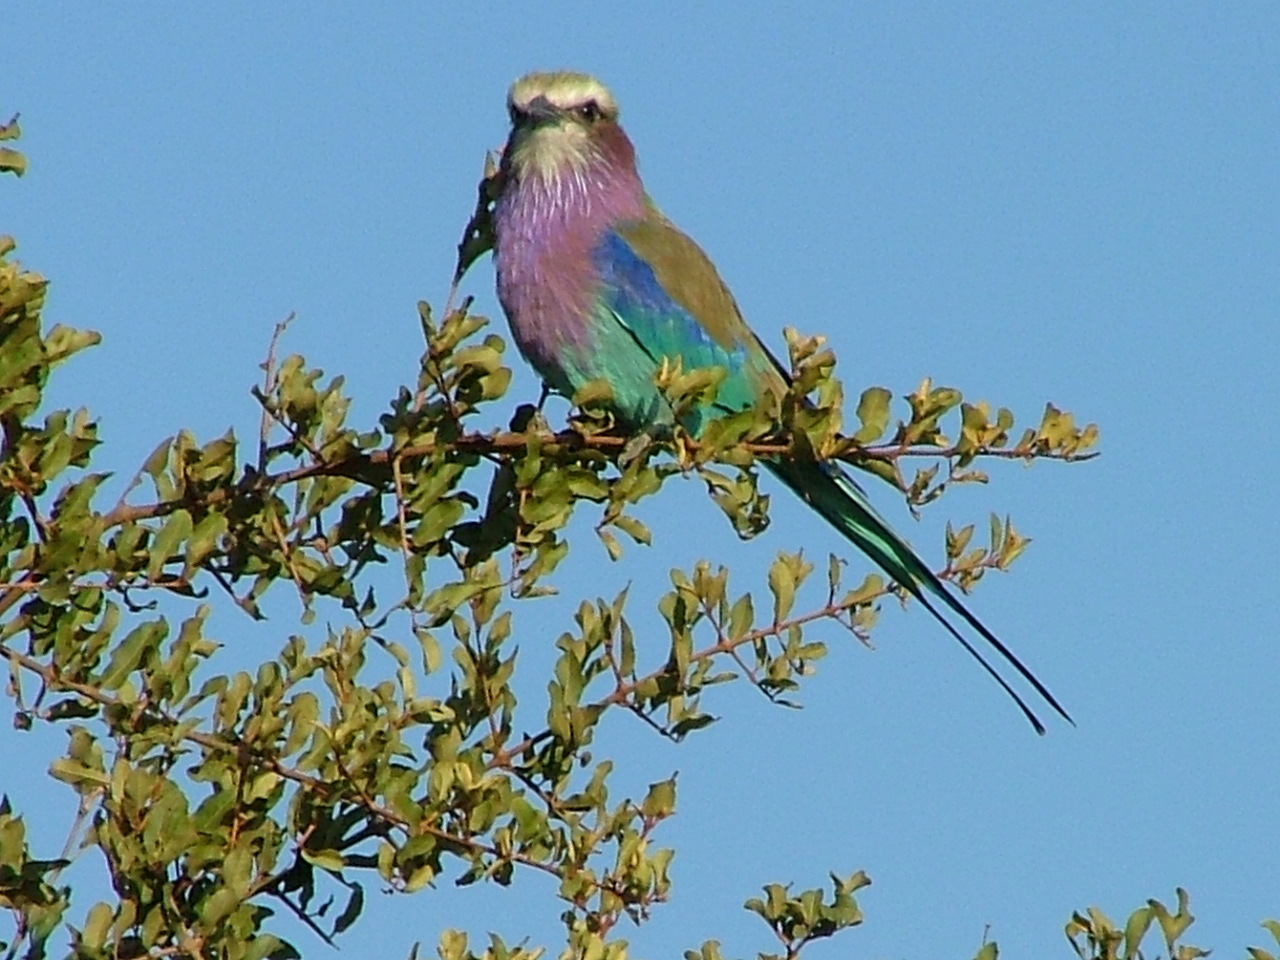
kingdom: Animalia
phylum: Chordata
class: Aves
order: Coraciiformes
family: Coraciidae
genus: Coracias
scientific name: Coracias caudatus
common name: Lilac-breasted roller
